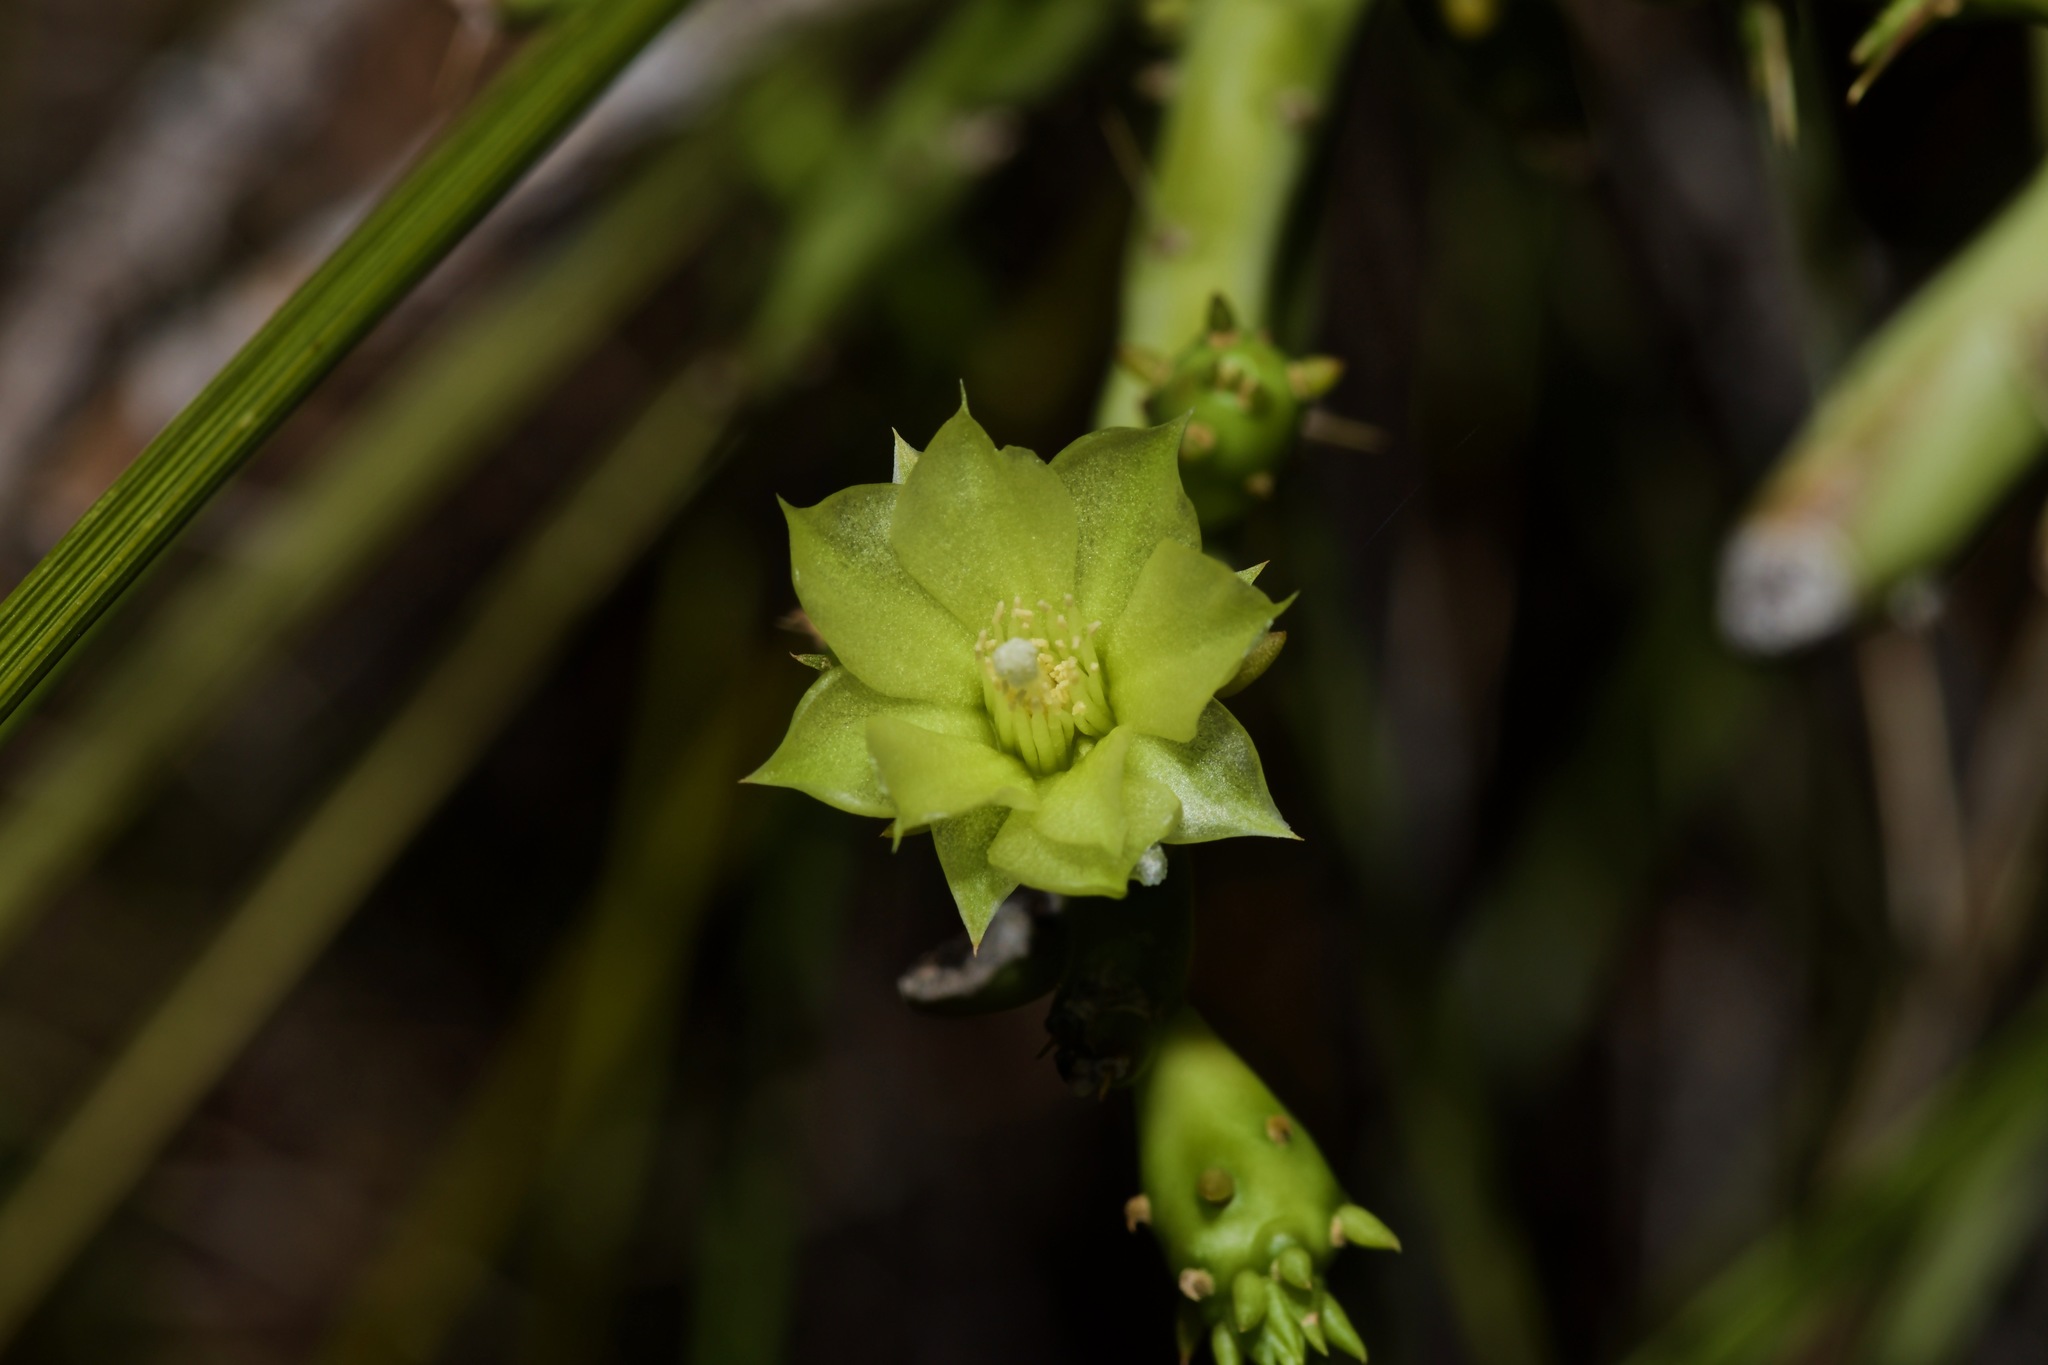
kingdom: Plantae
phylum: Tracheophyta
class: Magnoliopsida
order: Caryophyllales
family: Cactaceae
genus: Cylindropuntia
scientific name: Cylindropuntia leptocaulis
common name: Christmas cactus
